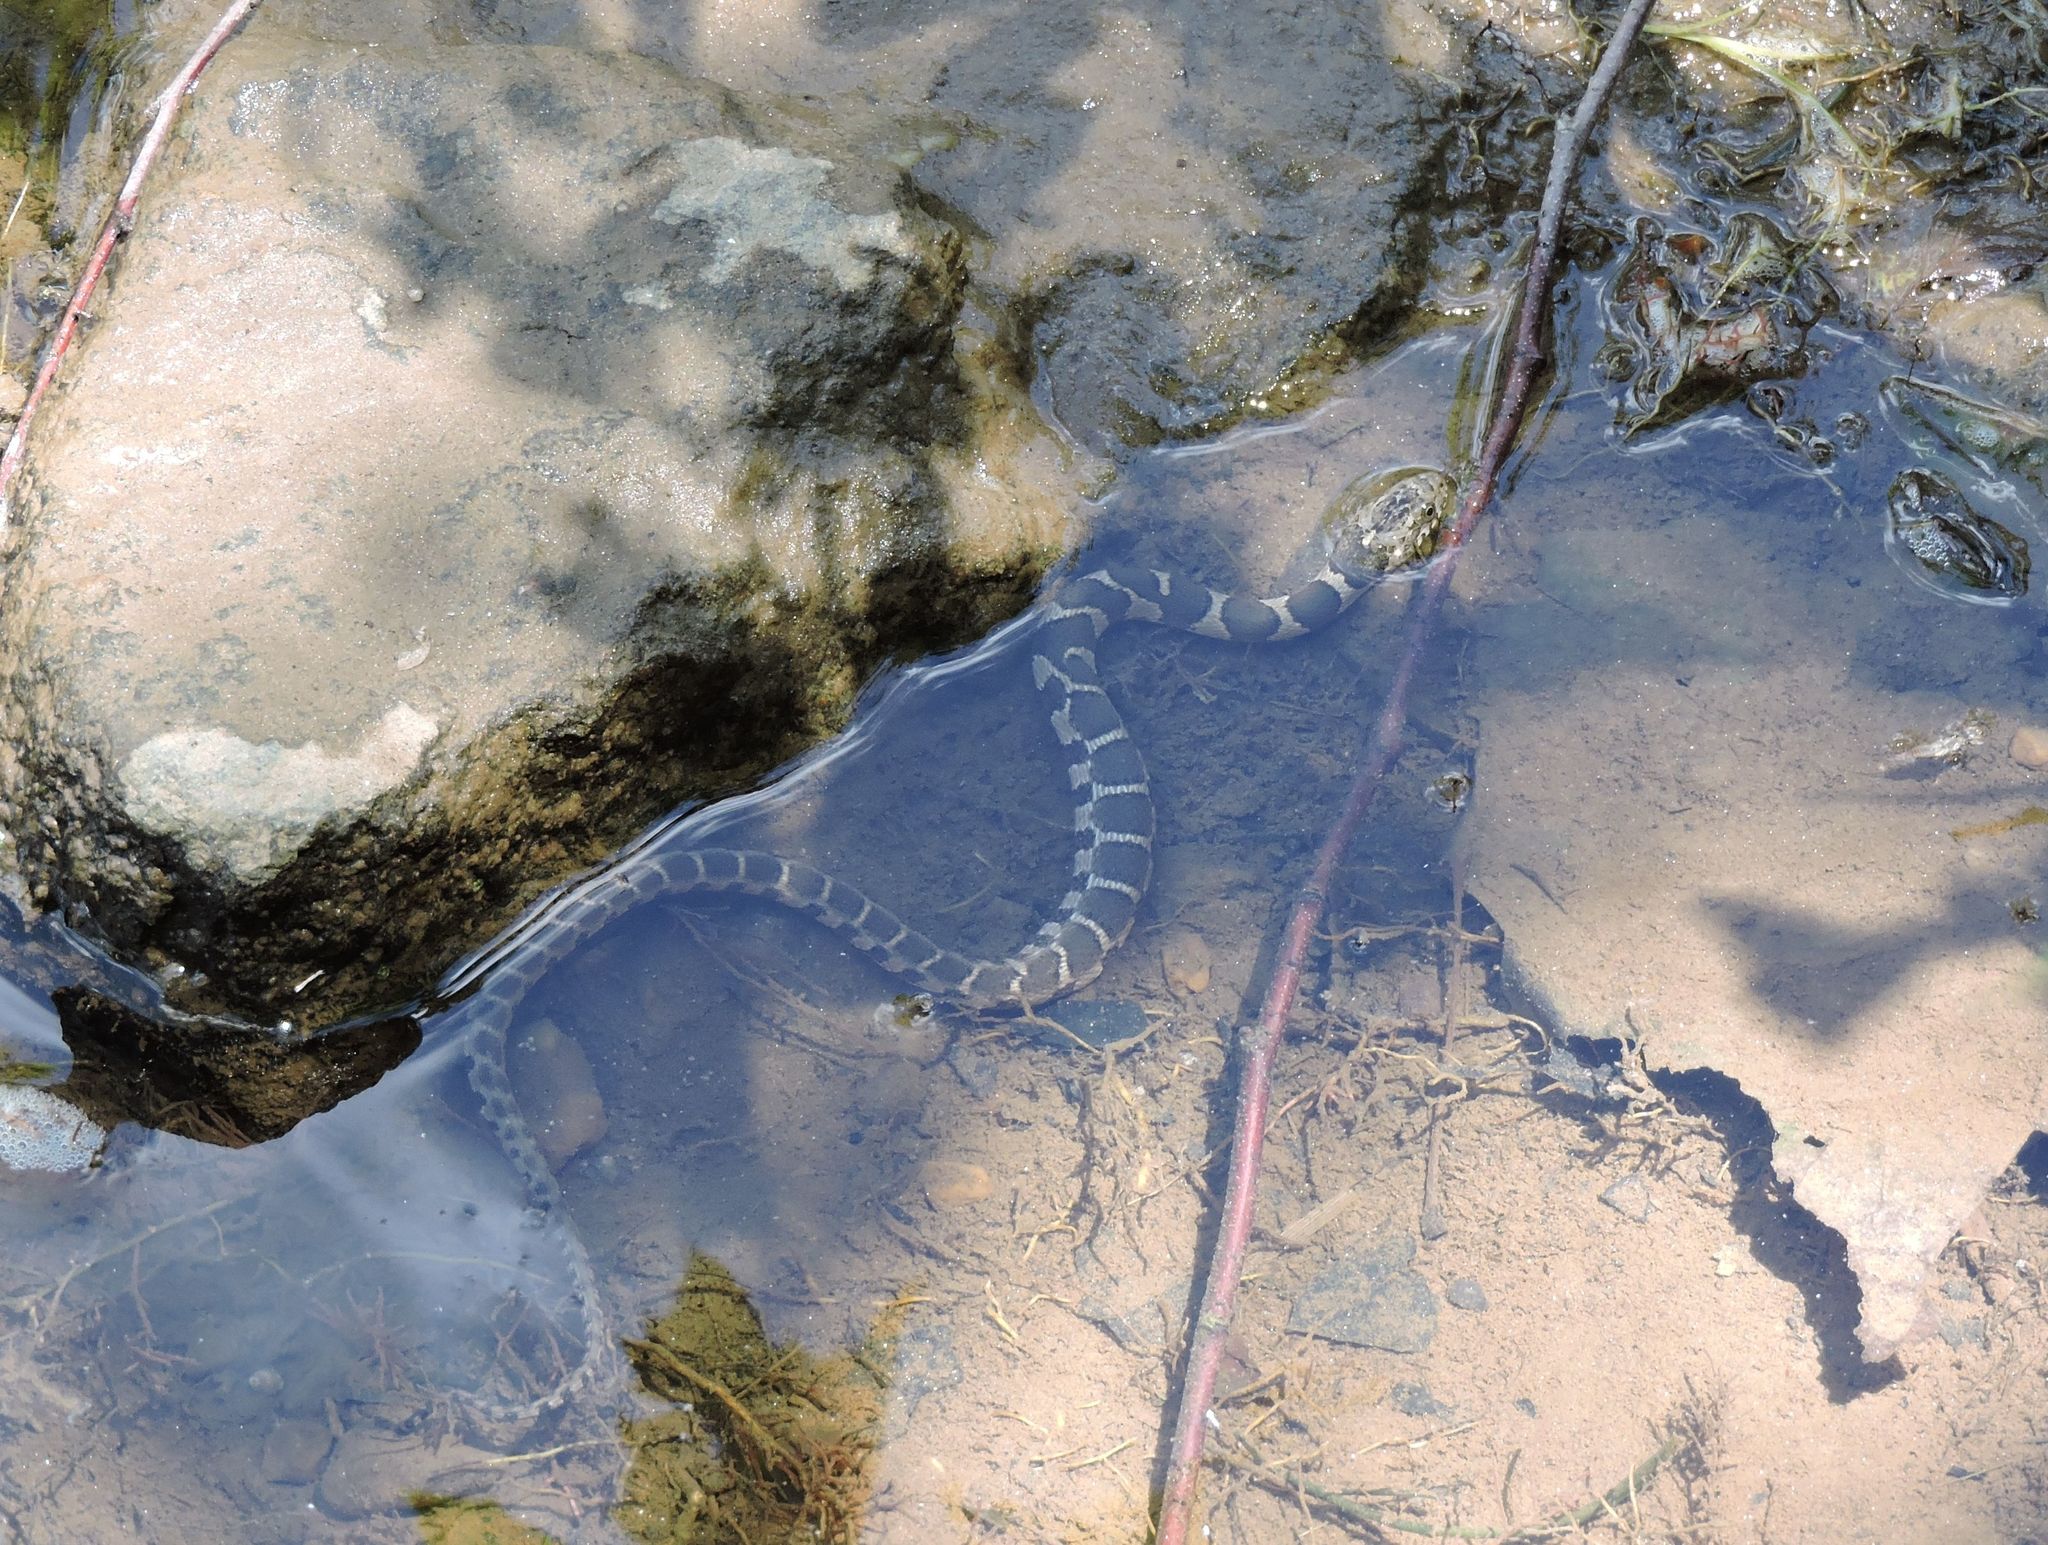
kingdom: Animalia
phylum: Chordata
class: Squamata
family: Colubridae
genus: Nerodia
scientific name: Nerodia sipedon
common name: Northern water snake
